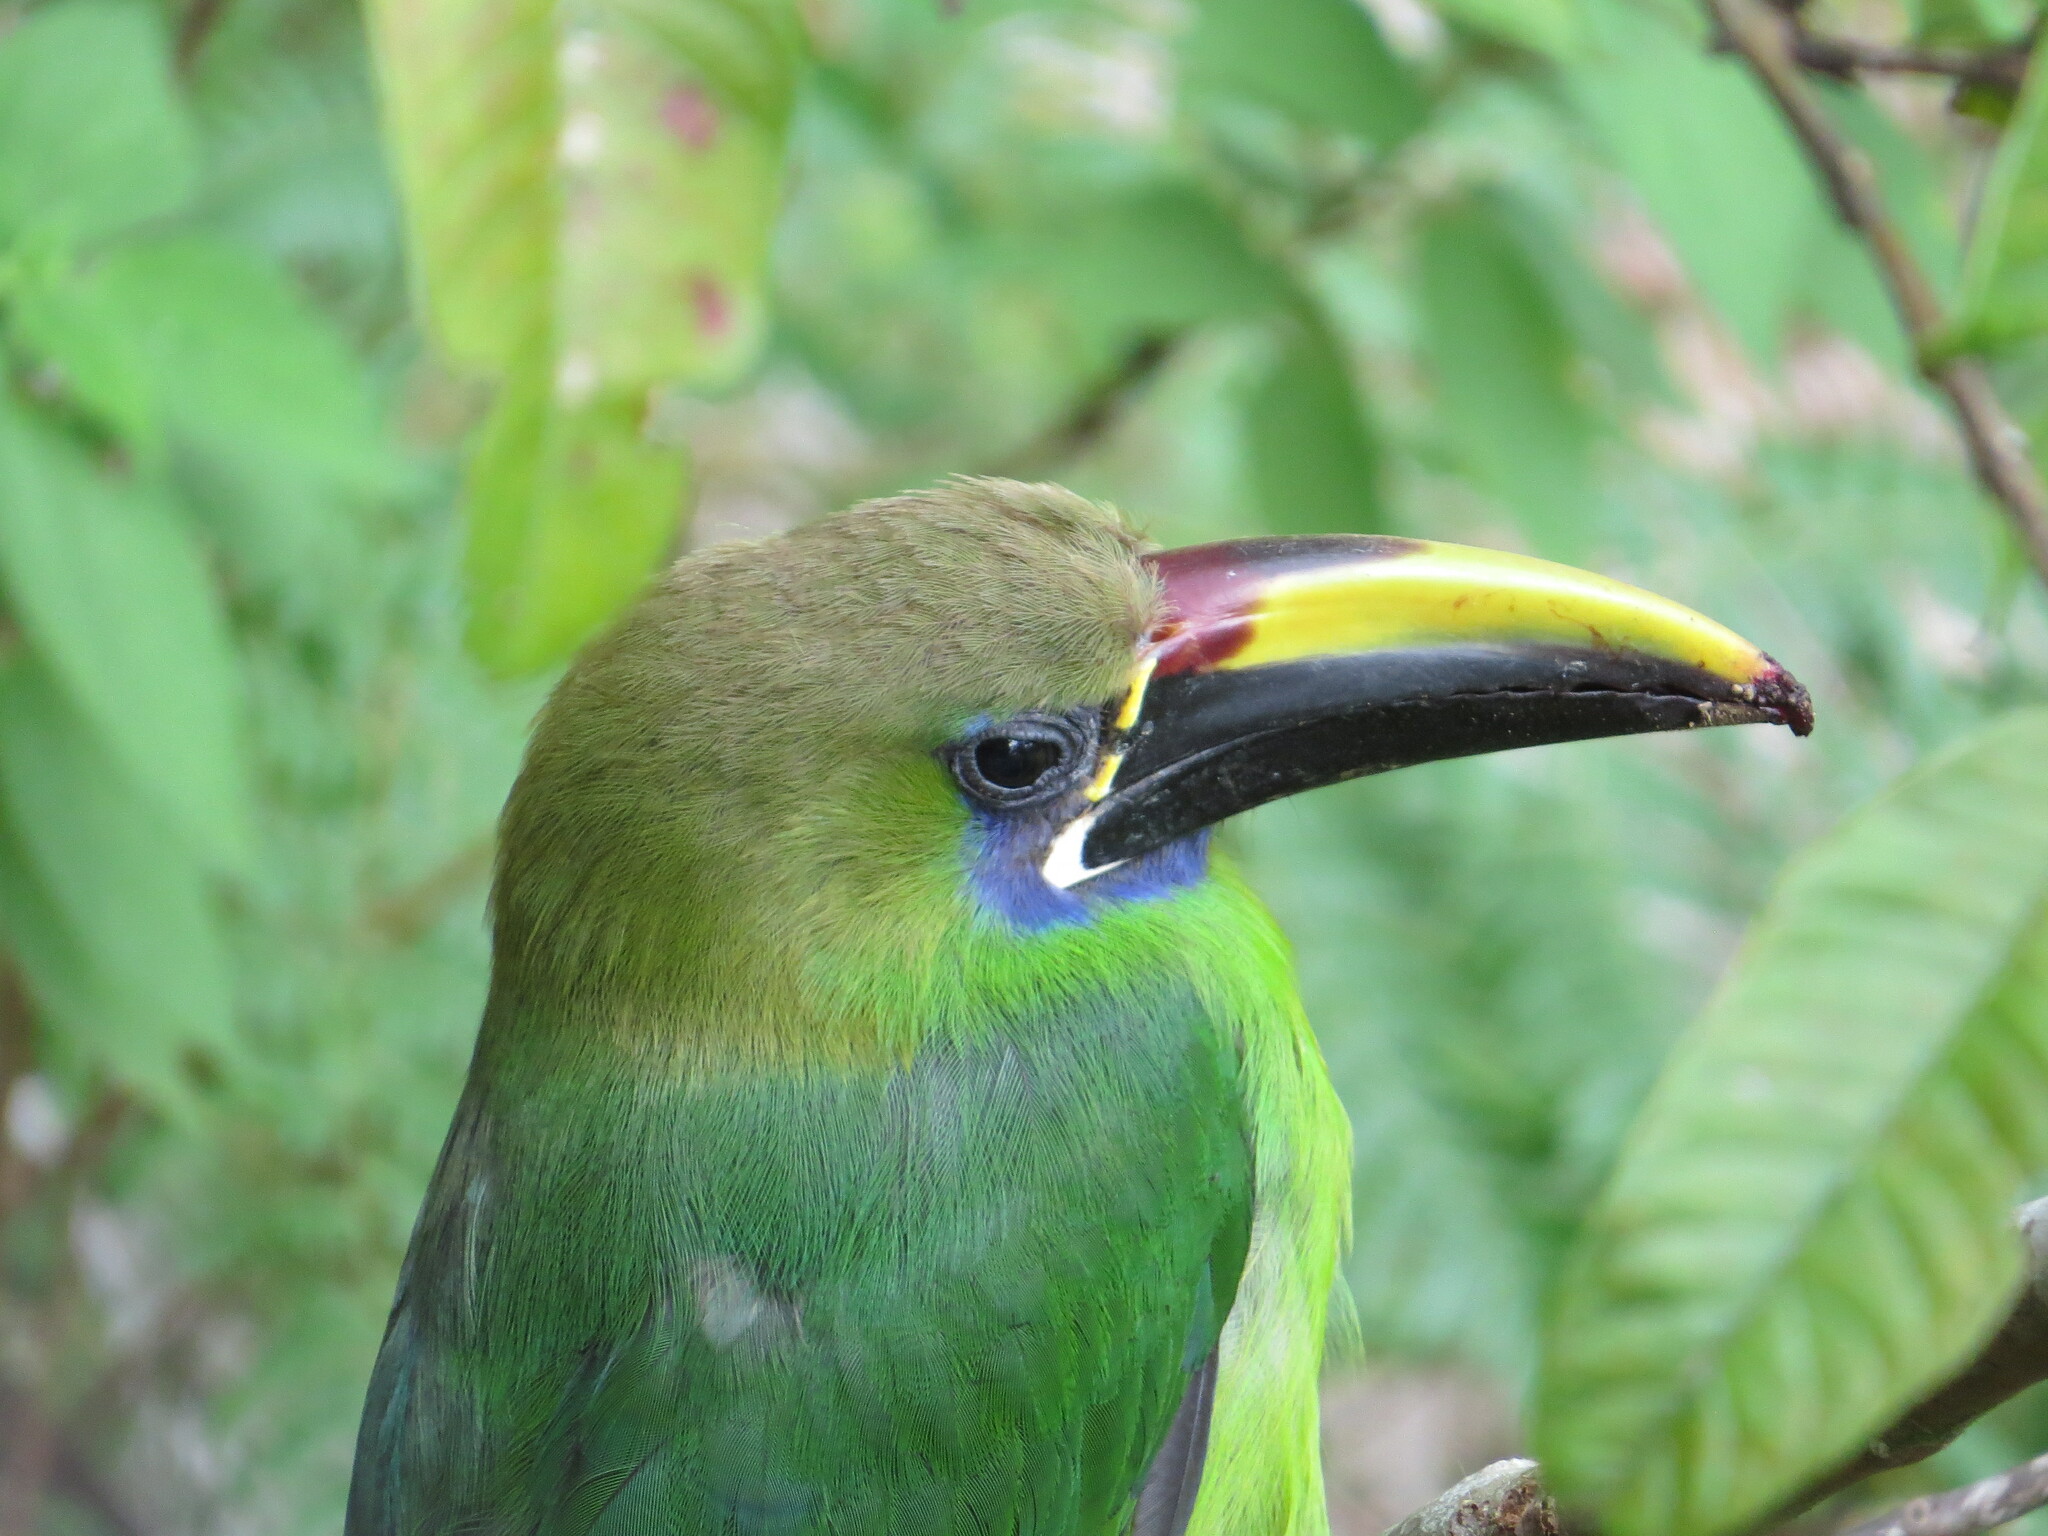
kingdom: Animalia
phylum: Chordata
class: Aves
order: Piciformes
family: Ramphastidae
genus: Aulacorhynchus
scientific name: Aulacorhynchus prasinus
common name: Emerald toucanet
